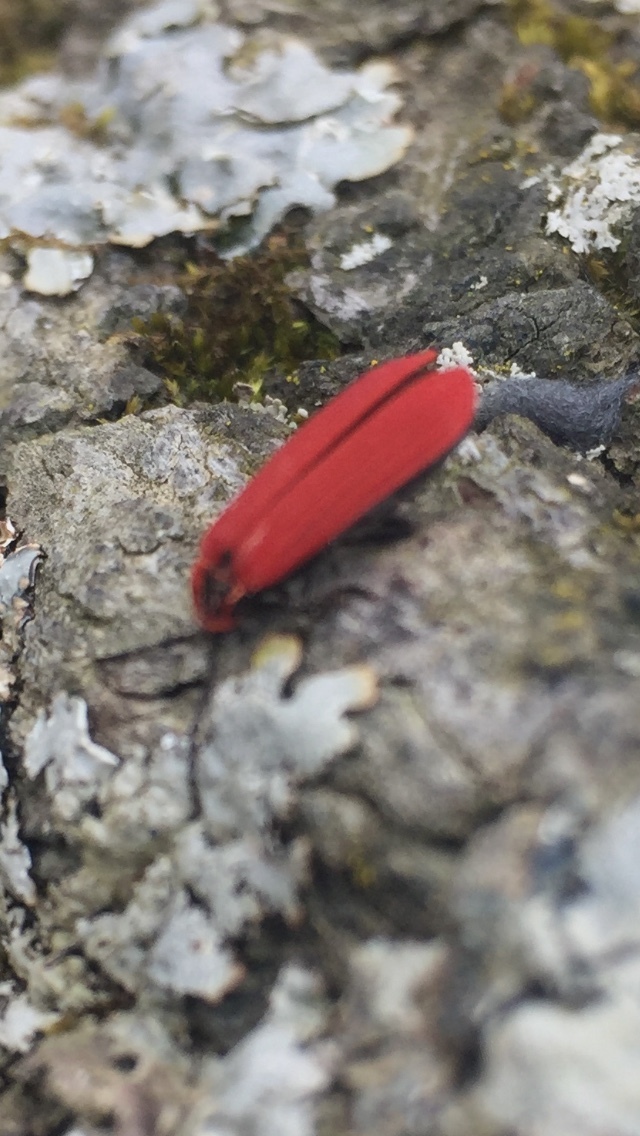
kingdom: Animalia
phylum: Arthropoda
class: Insecta
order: Coleoptera
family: Lycidae
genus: Dictyoptera
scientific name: Dictyoptera aurora
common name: Golden net-winged beetle
